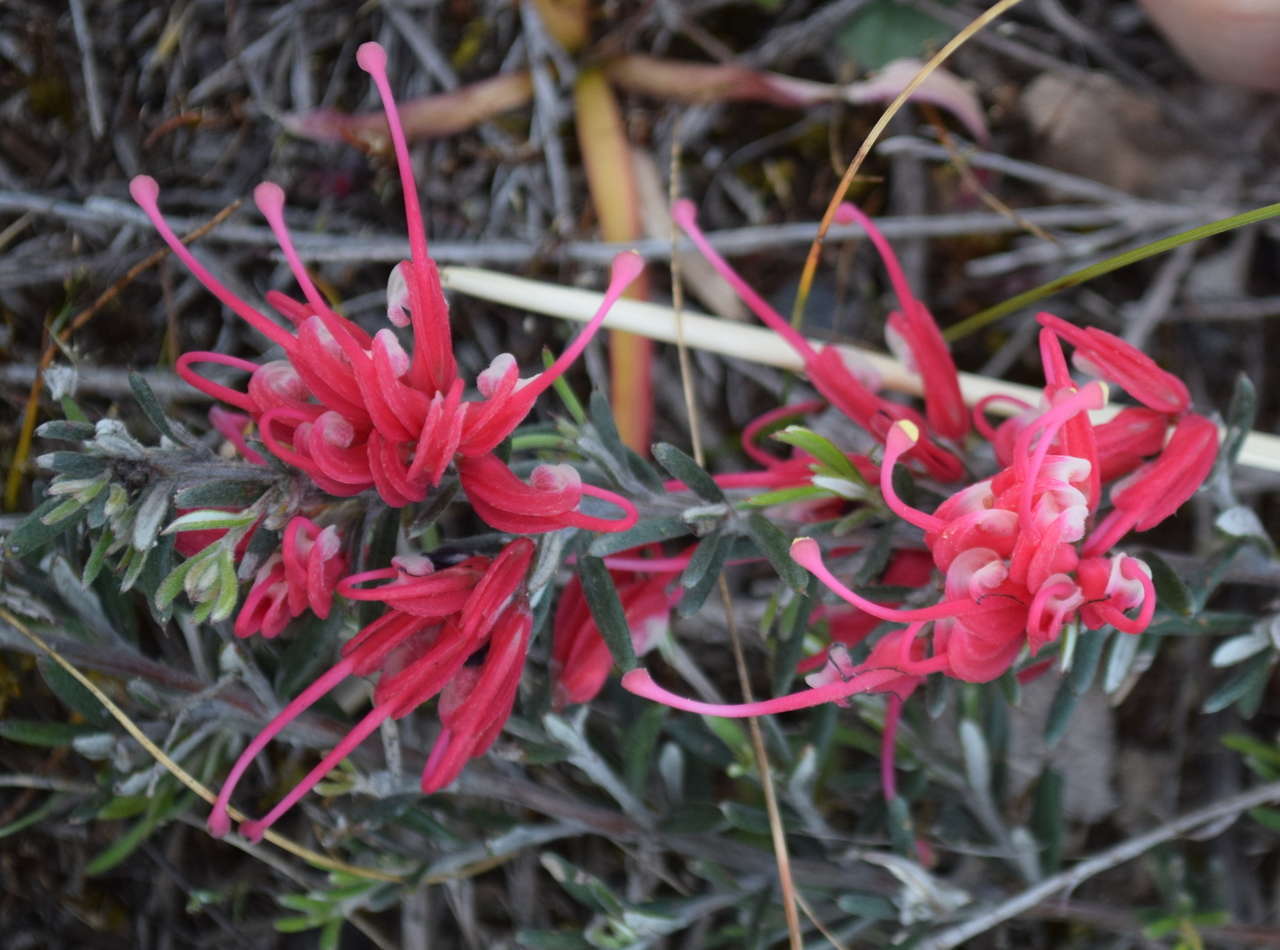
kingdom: Plantae
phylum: Tracheophyta
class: Magnoliopsida
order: Proteales
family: Proteaceae
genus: Grevillea
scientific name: Grevillea lavandulacea
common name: Lavender grevillea
